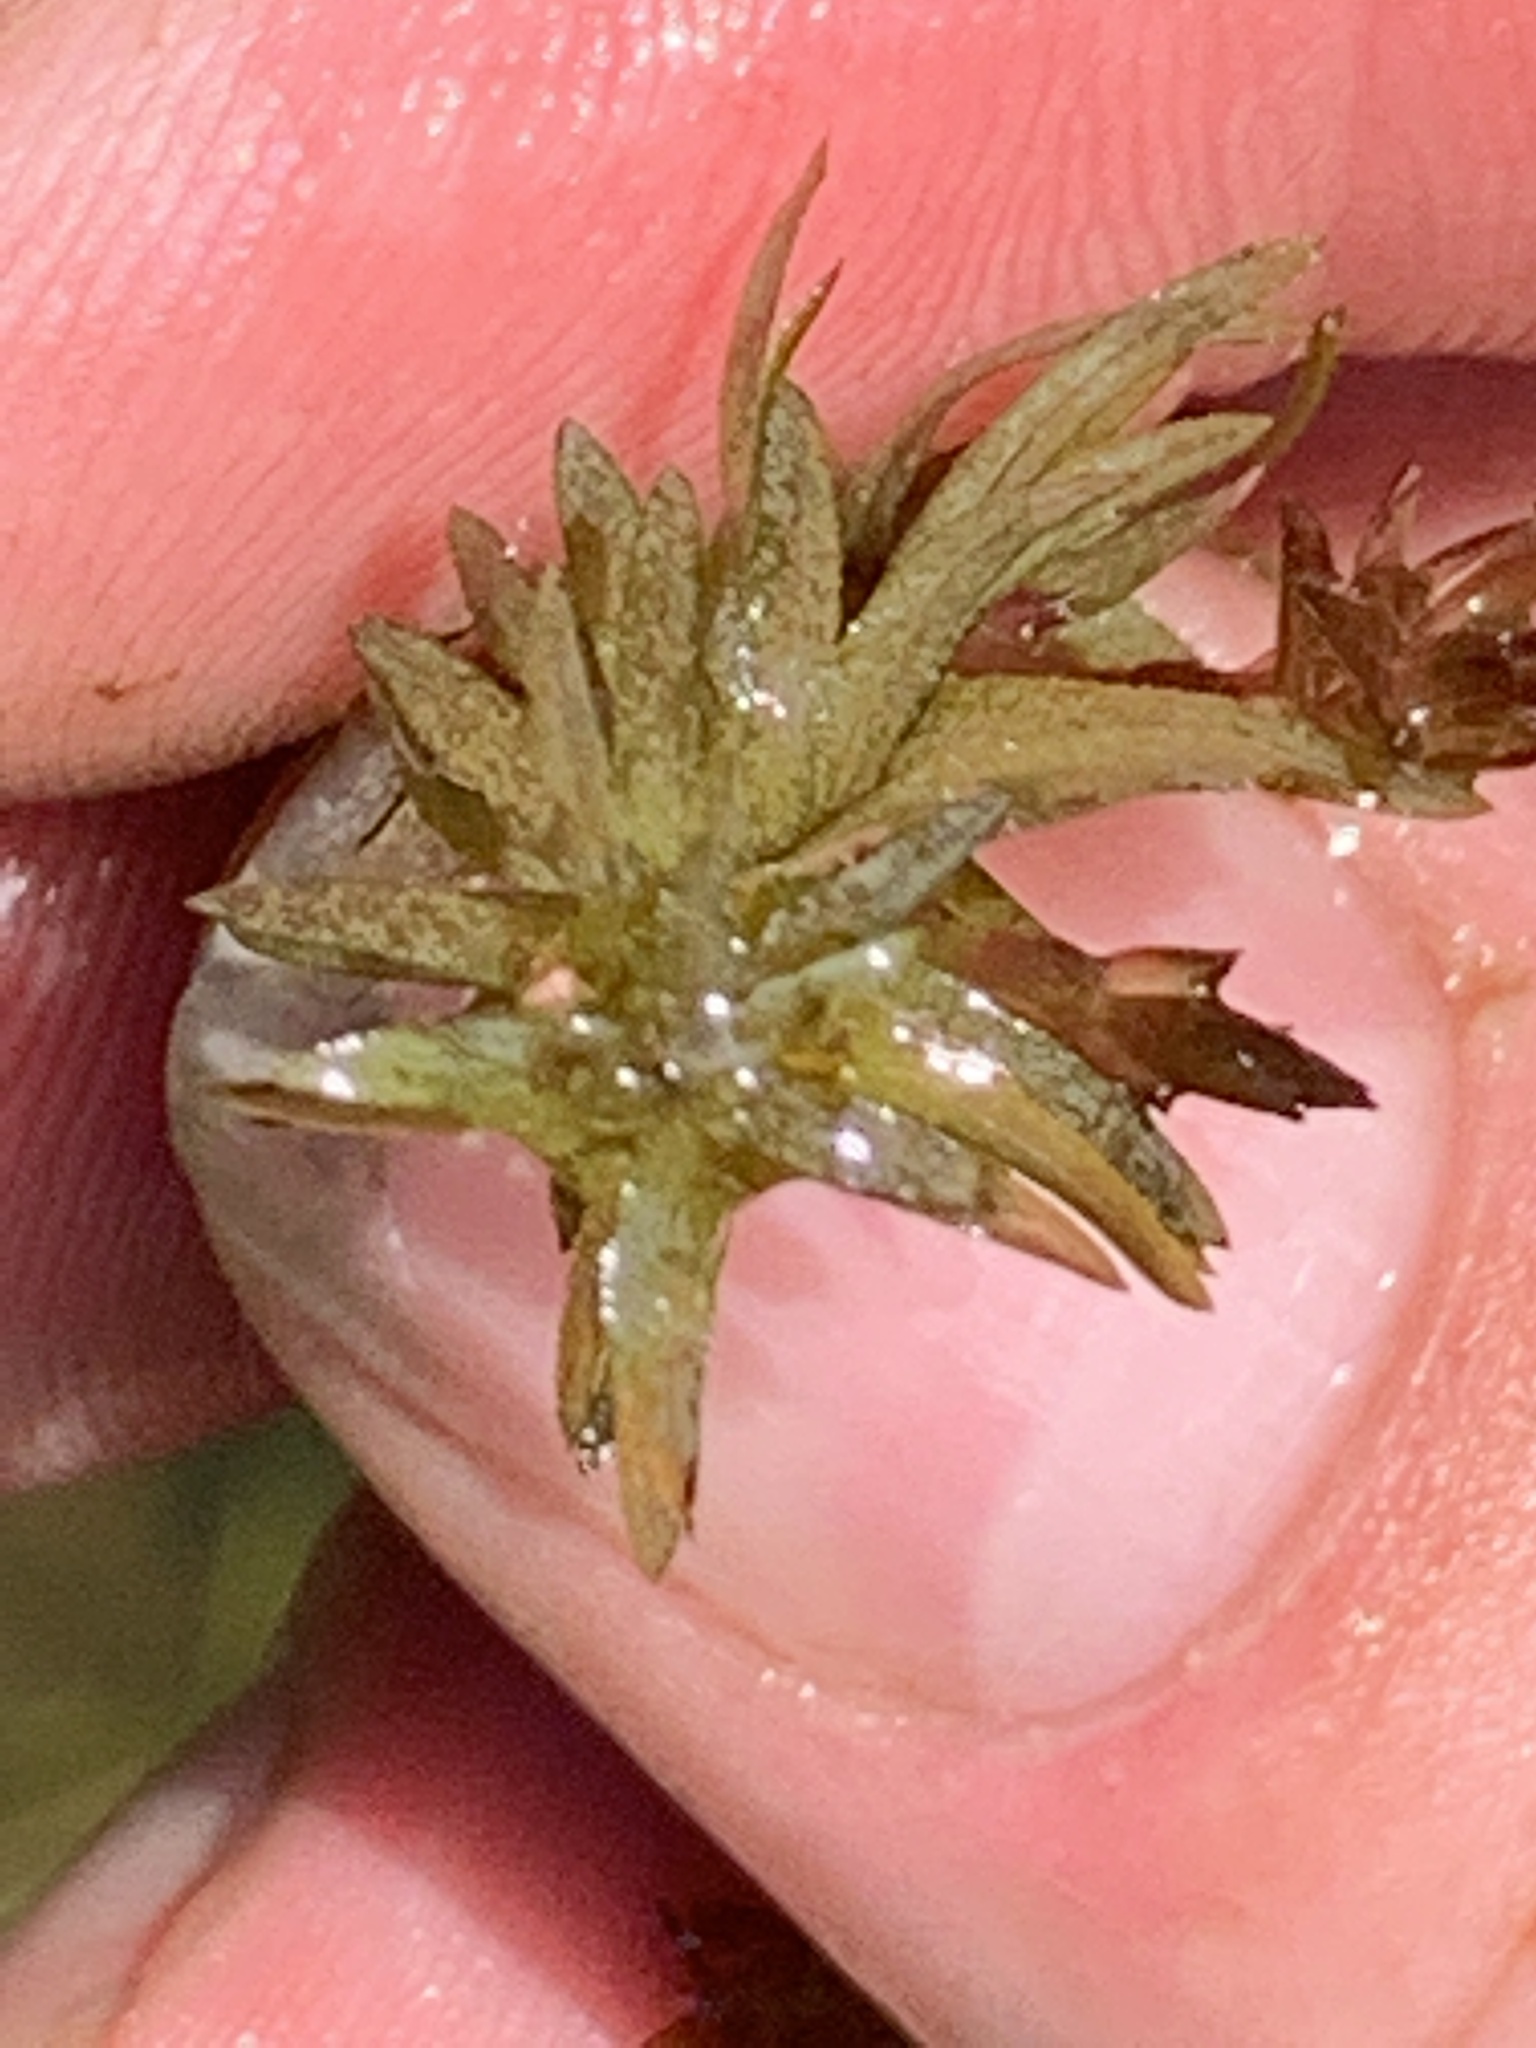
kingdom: Plantae
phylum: Tracheophyta
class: Liliopsida
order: Alismatales
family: Hydrocharitaceae
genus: Elodea
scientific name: Elodea canadensis
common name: Canadian waterweed
